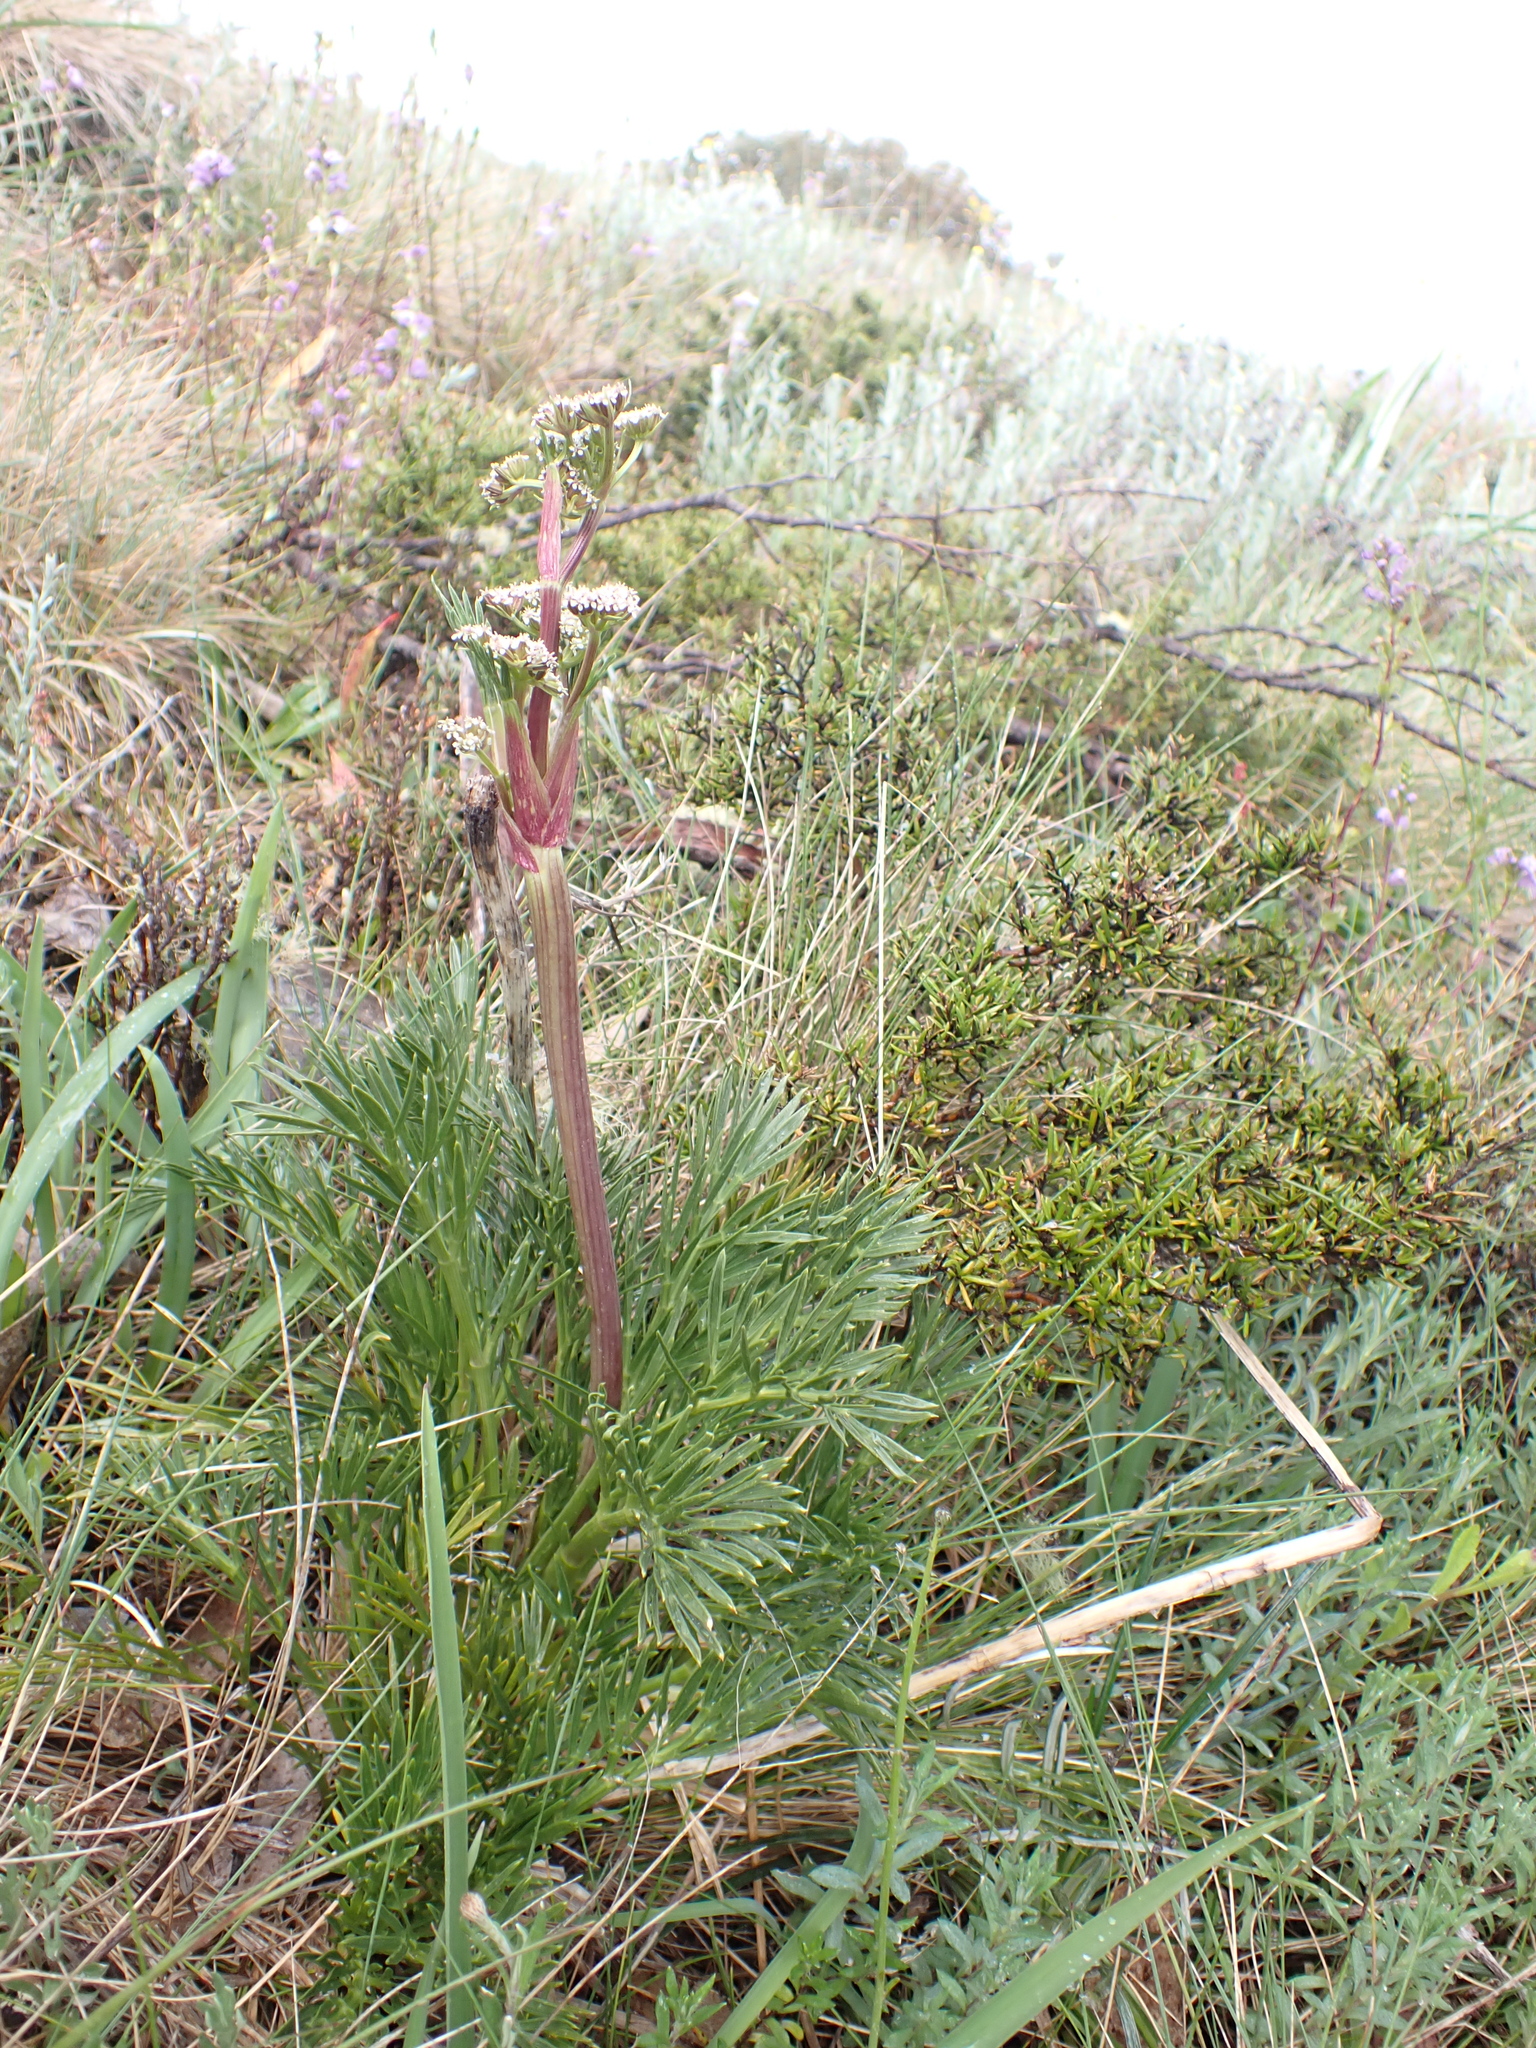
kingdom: Plantae
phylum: Tracheophyta
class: Magnoliopsida
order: Apiales
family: Apiaceae
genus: Aciphylla
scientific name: Aciphylla glacialis
